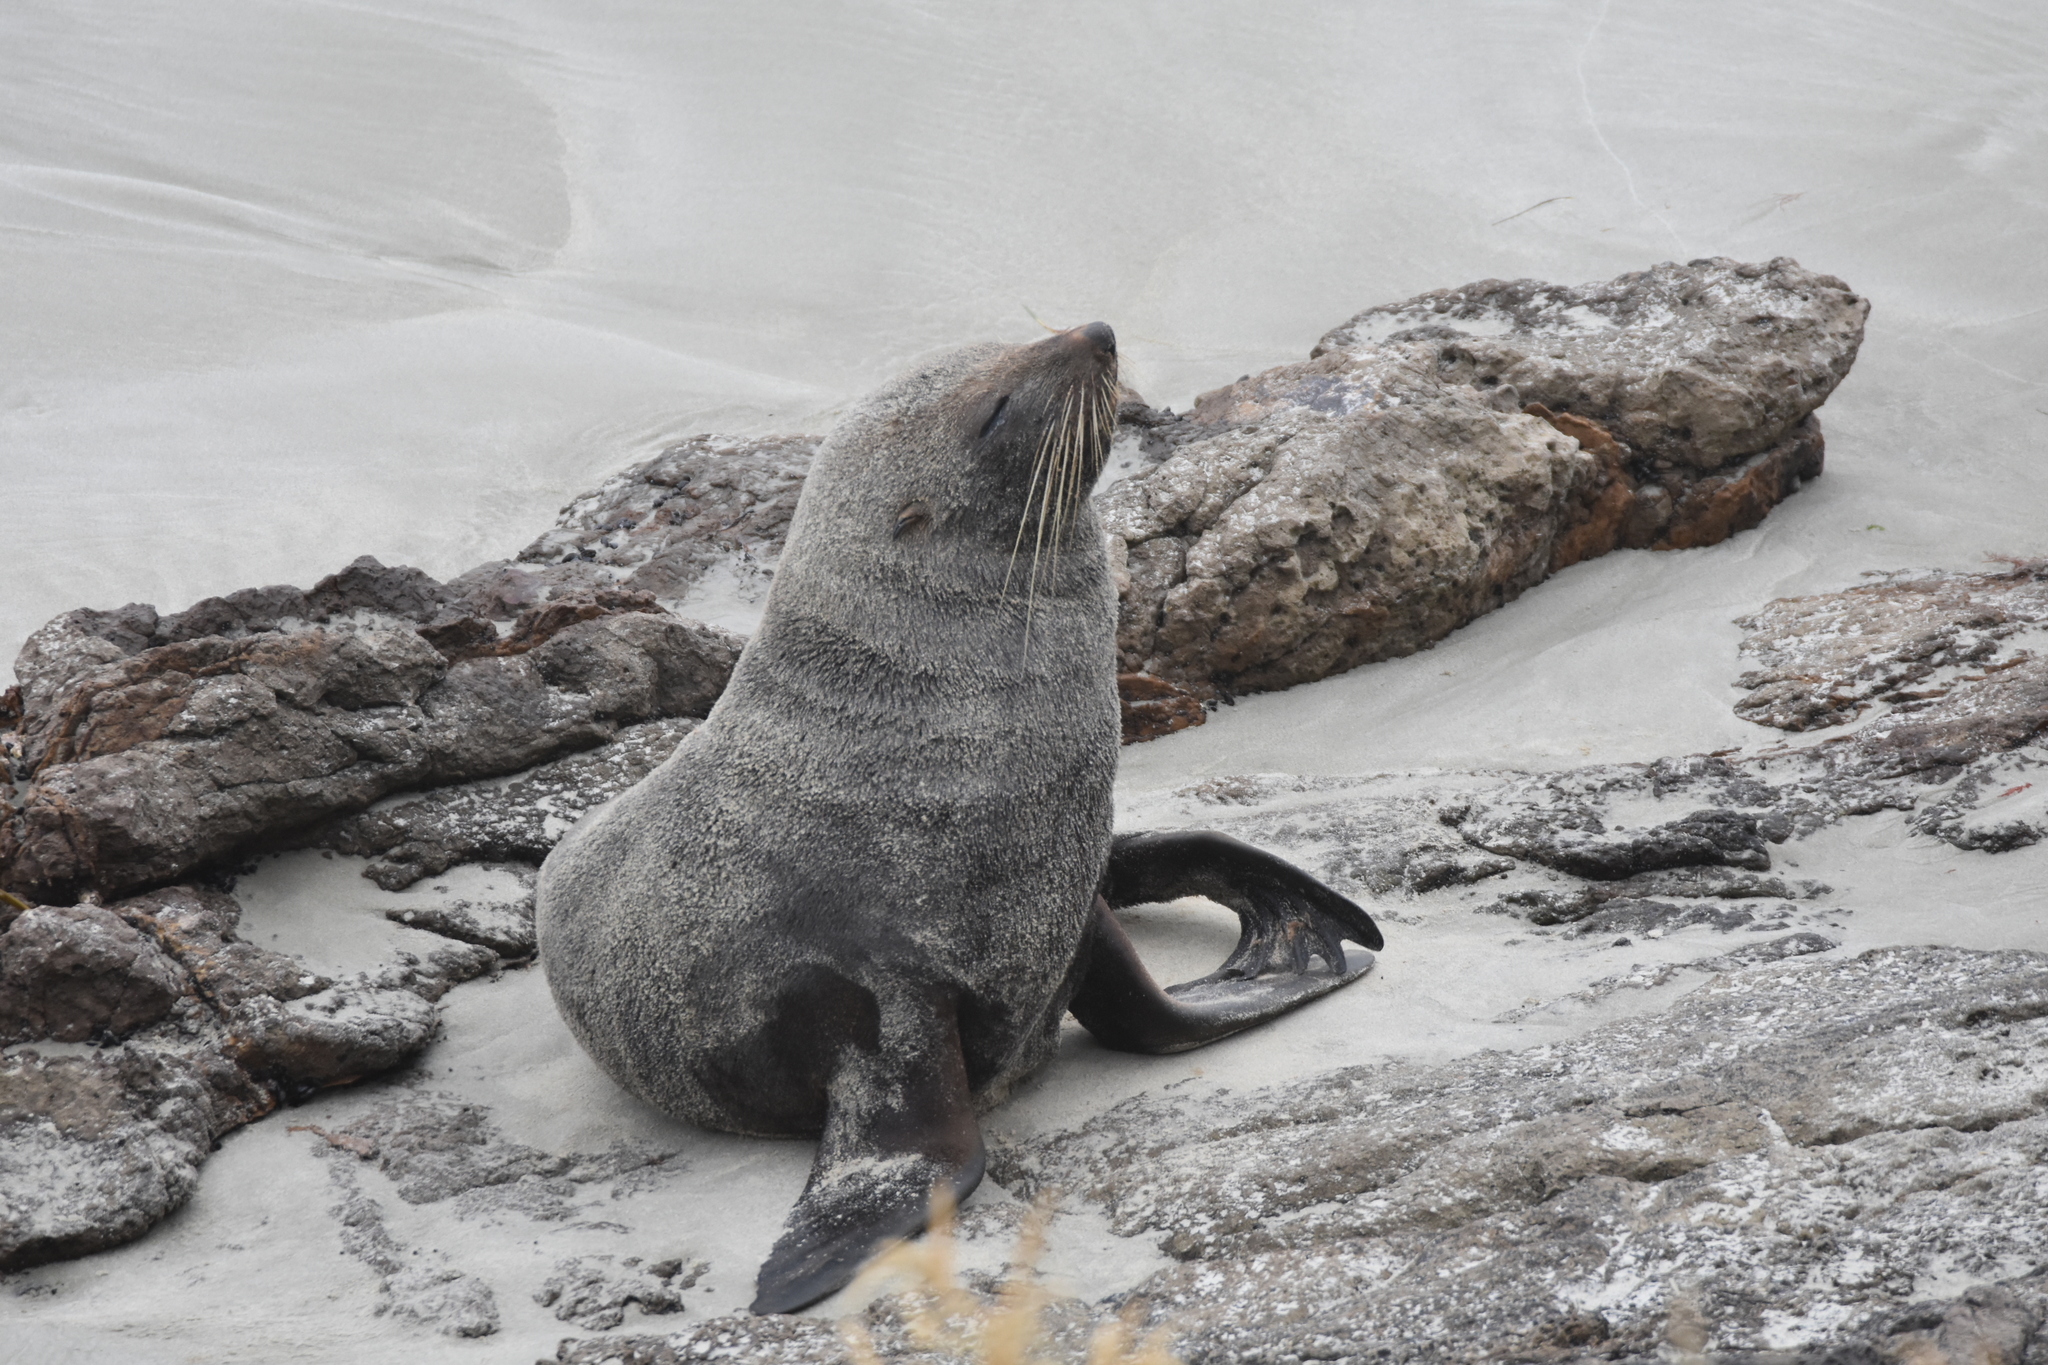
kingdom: Animalia
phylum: Chordata
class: Mammalia
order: Carnivora
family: Otariidae
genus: Arctocephalus
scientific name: Arctocephalus forsteri
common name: New zealand fur seal
